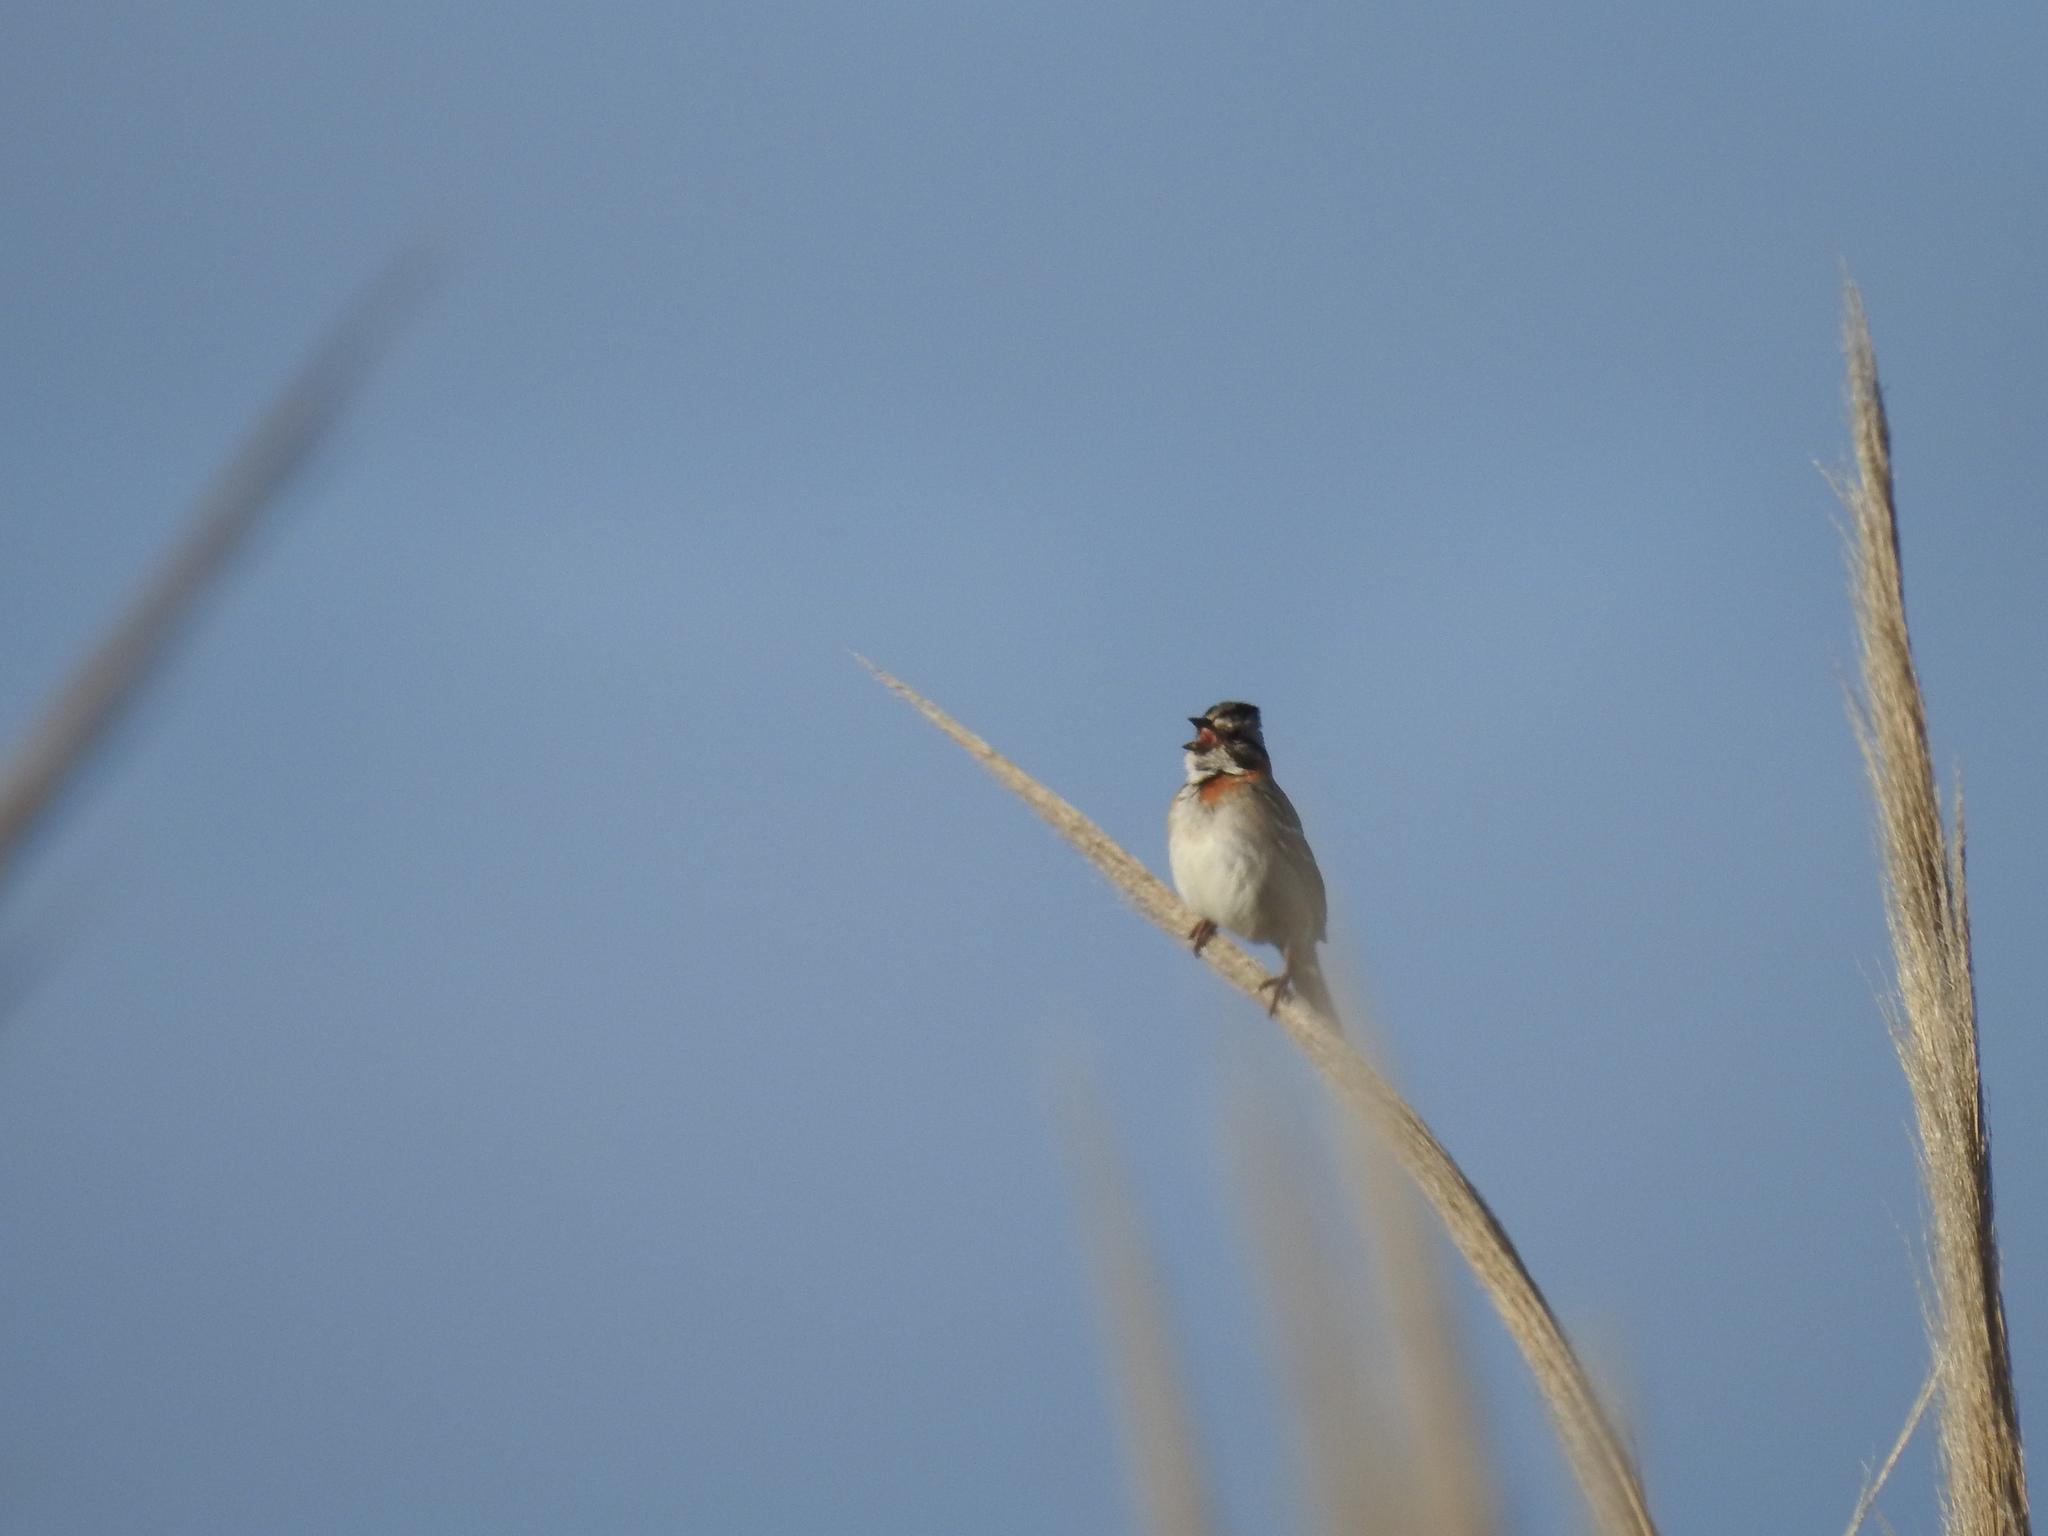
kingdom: Animalia
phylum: Chordata
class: Aves
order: Passeriformes
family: Passerellidae
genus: Zonotrichia
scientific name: Zonotrichia capensis
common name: Rufous-collared sparrow
